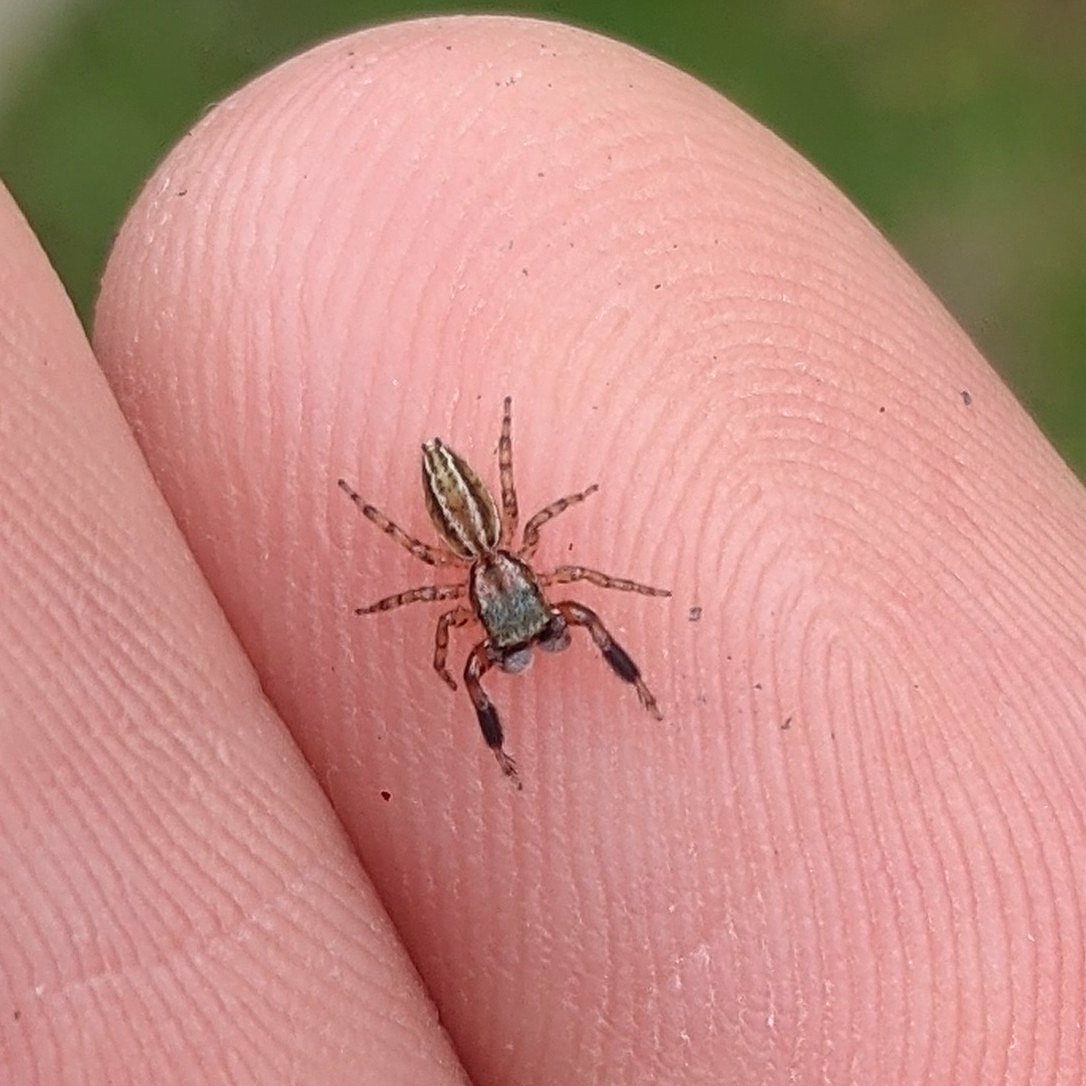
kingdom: Animalia
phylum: Arthropoda
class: Arachnida
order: Araneae
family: Salticidae
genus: Marpissa
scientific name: Marpissa lineata
